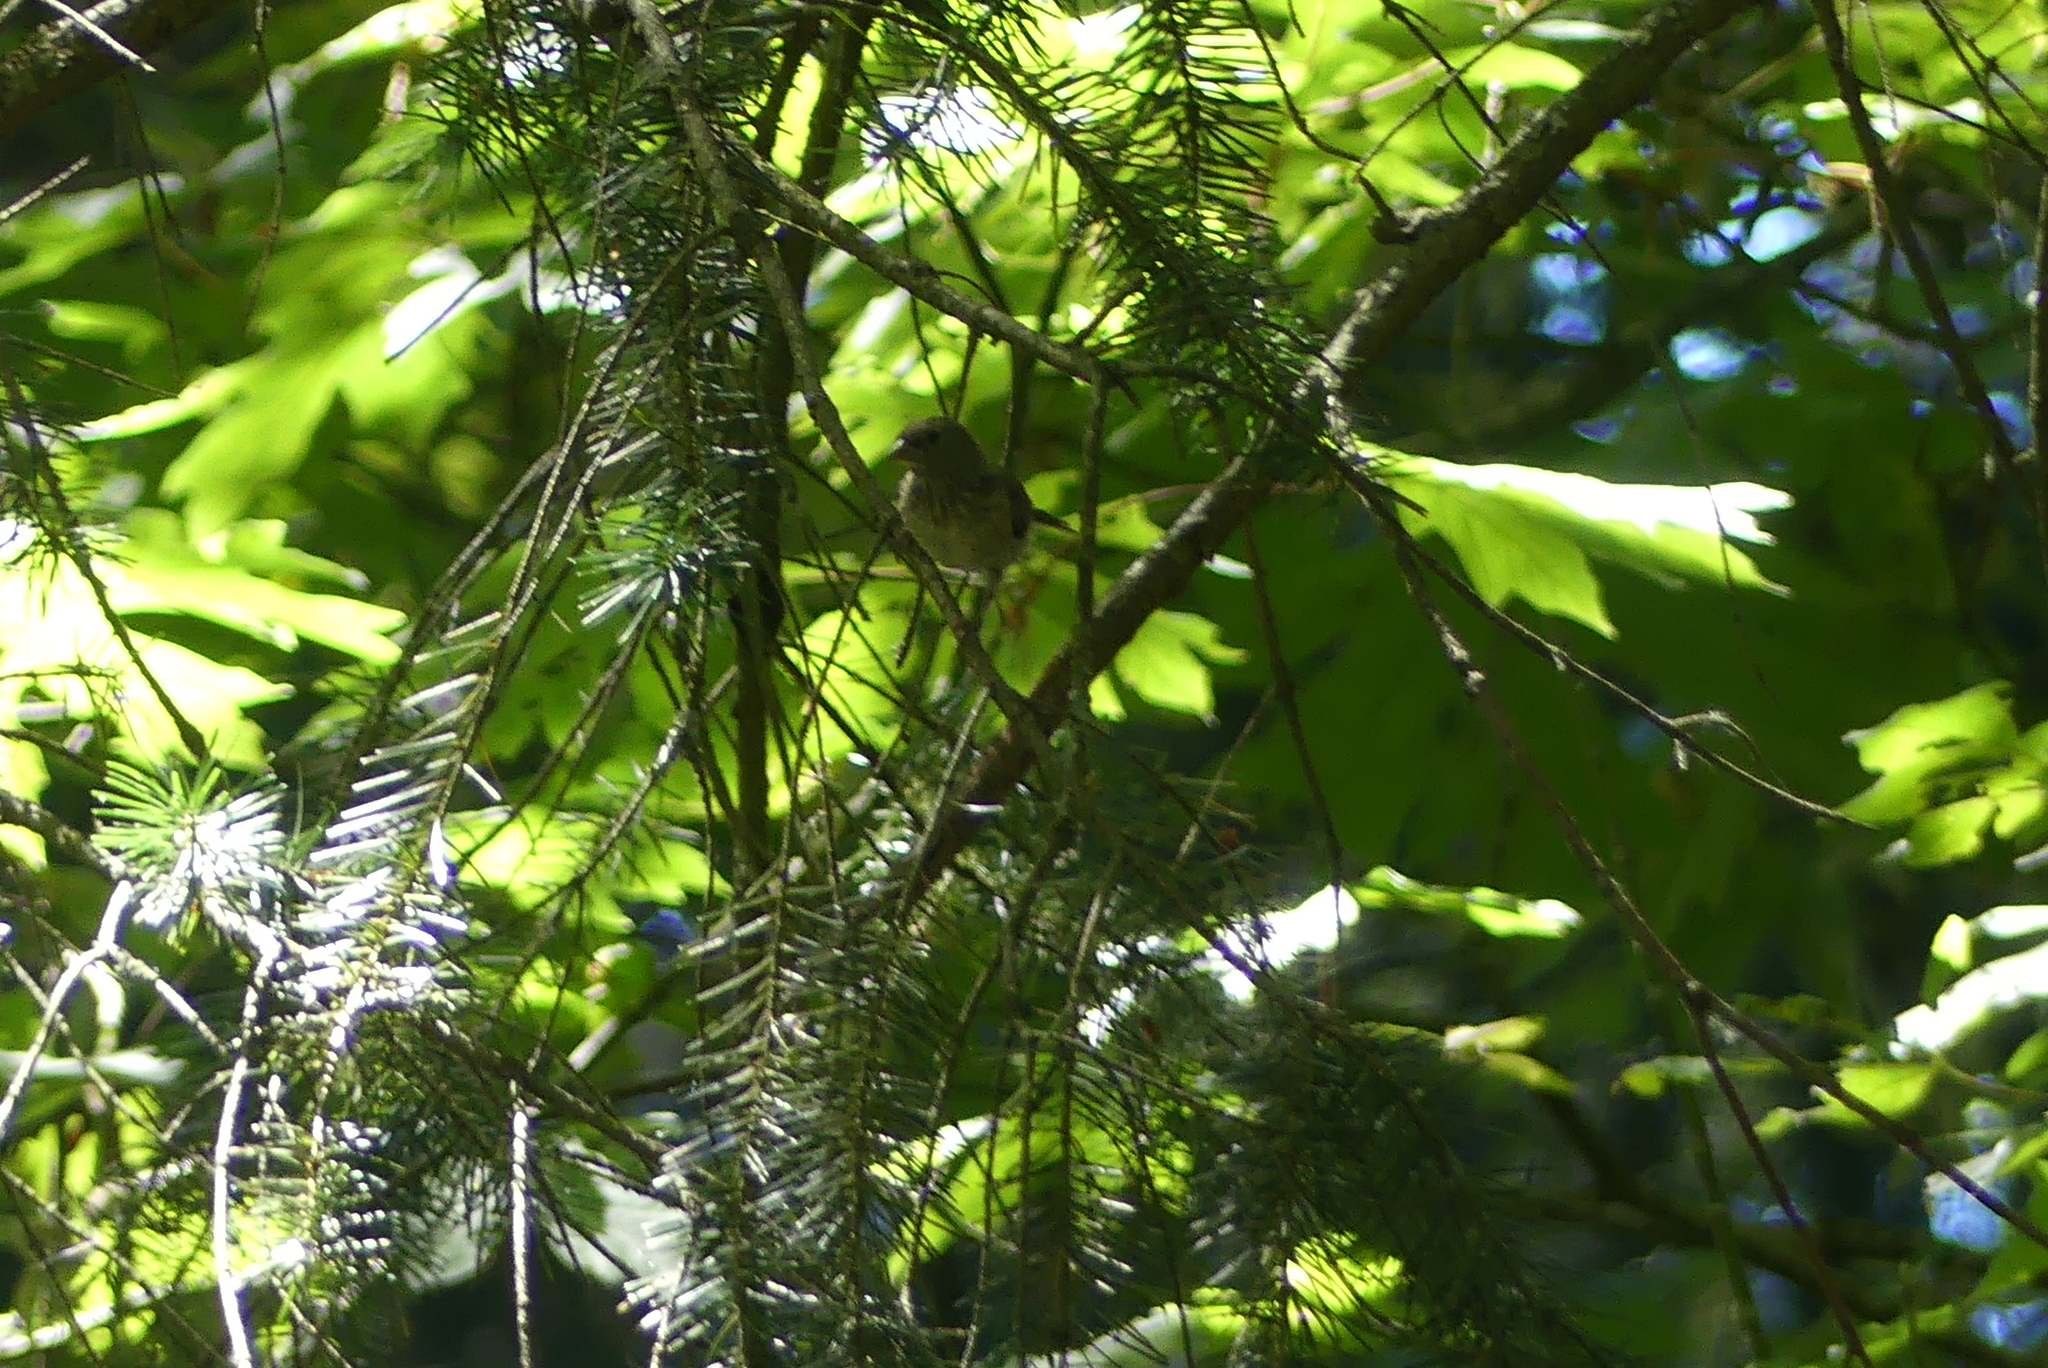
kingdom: Animalia
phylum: Chordata
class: Aves
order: Passeriformes
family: Passerellidae
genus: Junco
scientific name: Junco hyemalis
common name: Dark-eyed junco
